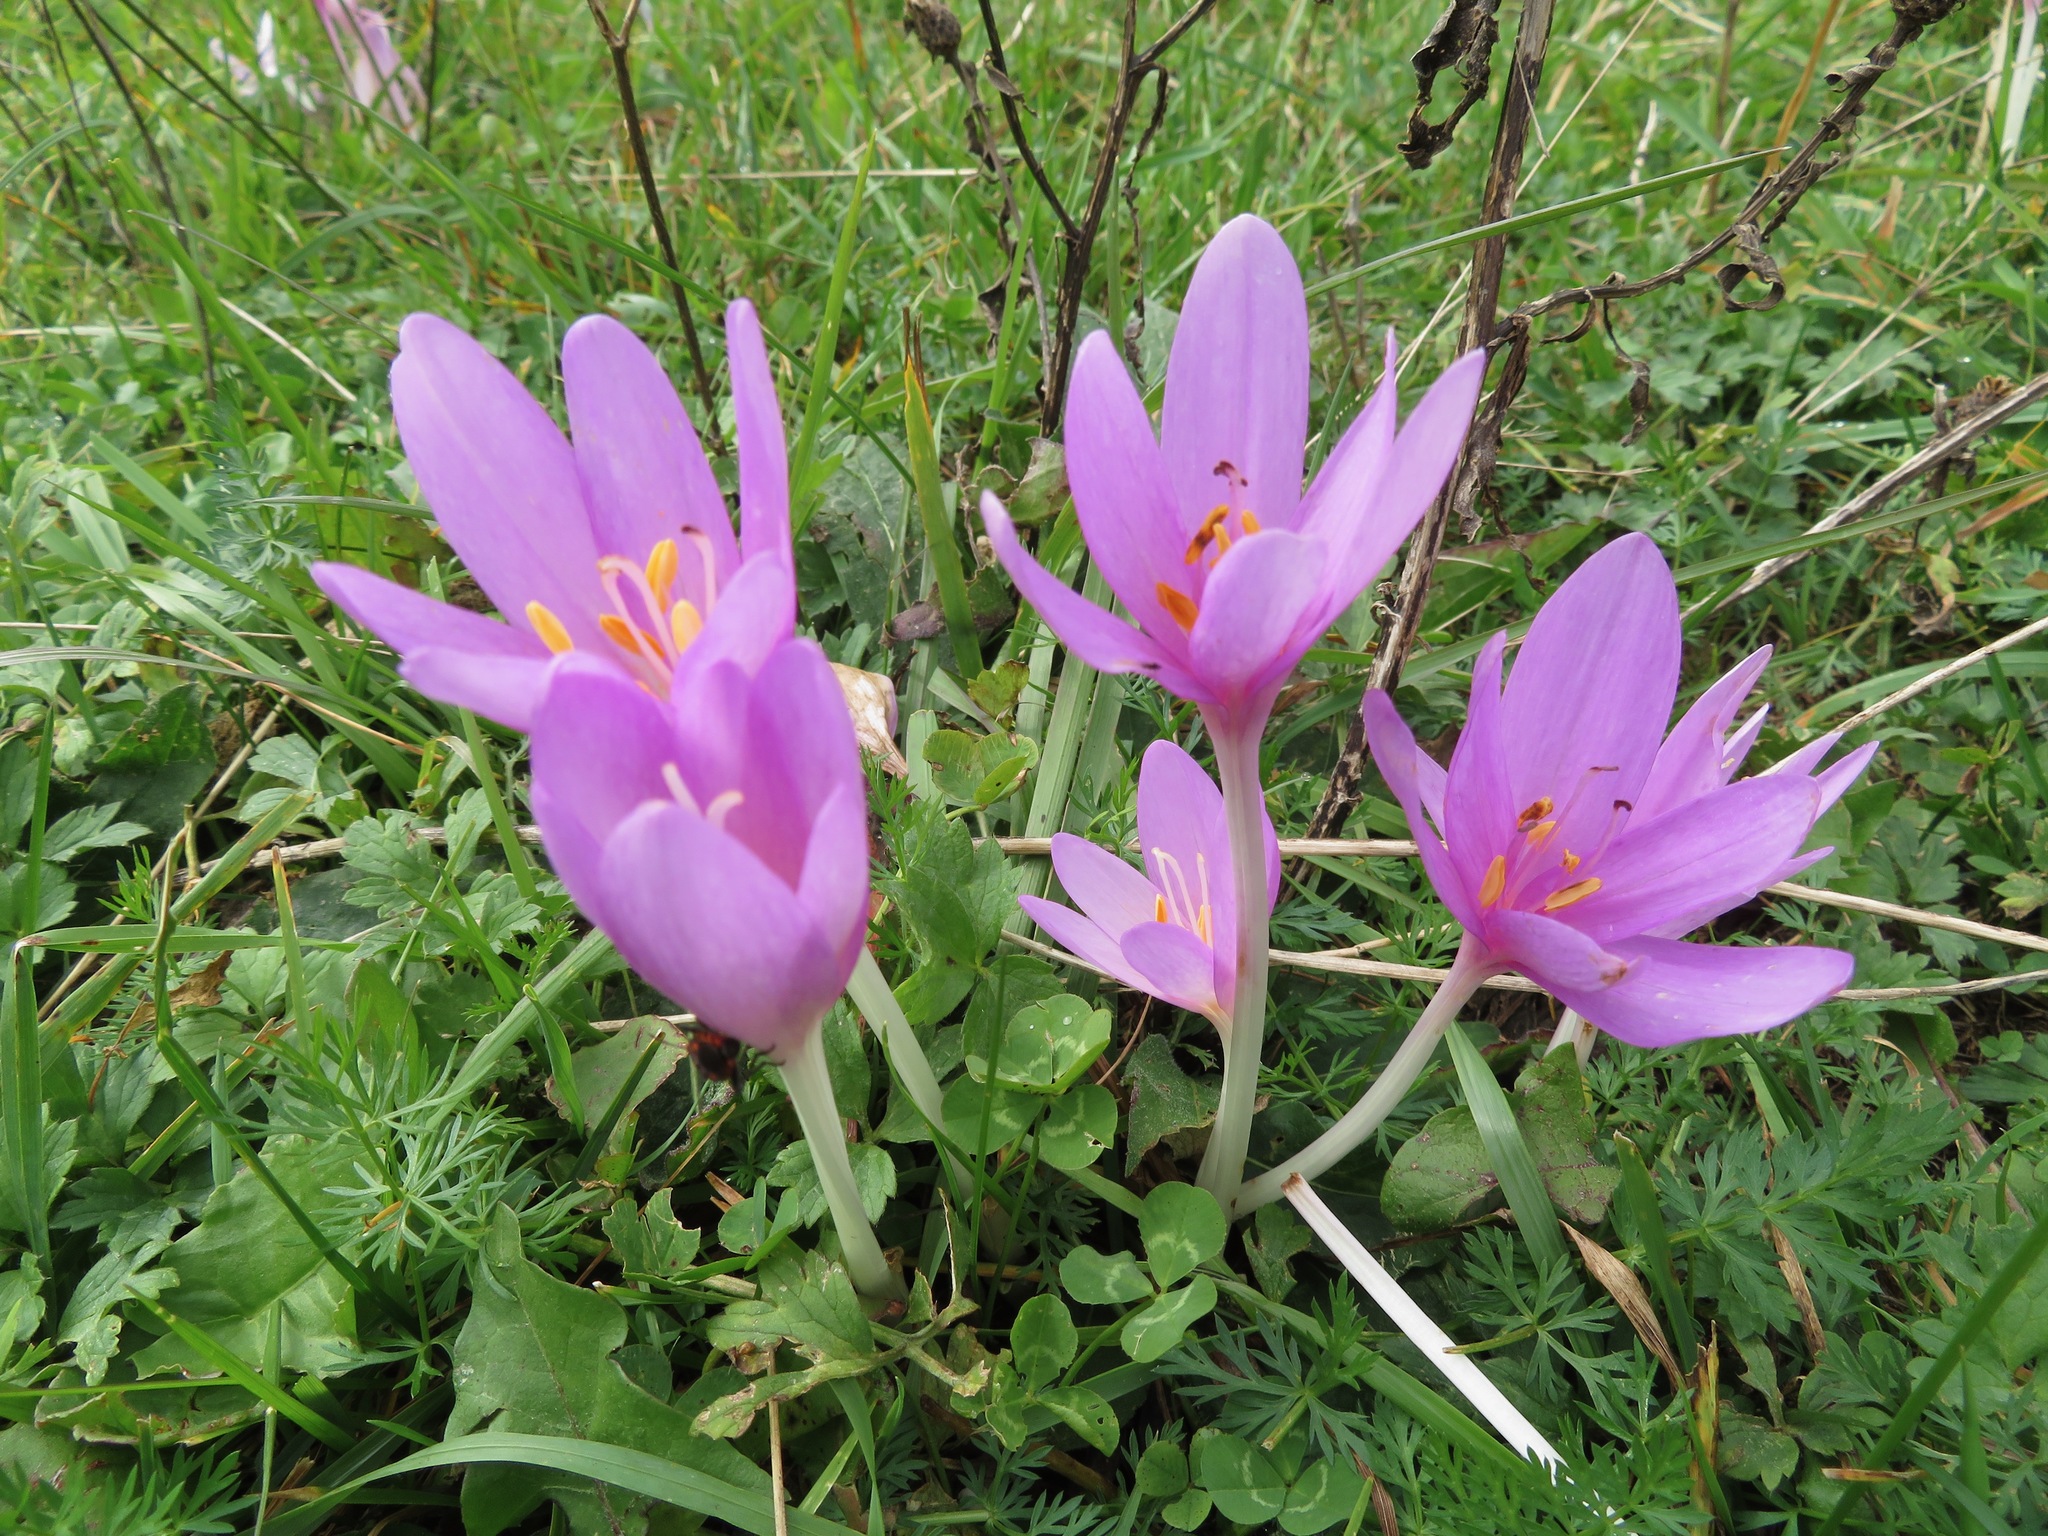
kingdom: Plantae
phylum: Tracheophyta
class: Liliopsida
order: Liliales
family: Colchicaceae
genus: Colchicum
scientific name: Colchicum autumnale
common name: Autumn crocus
